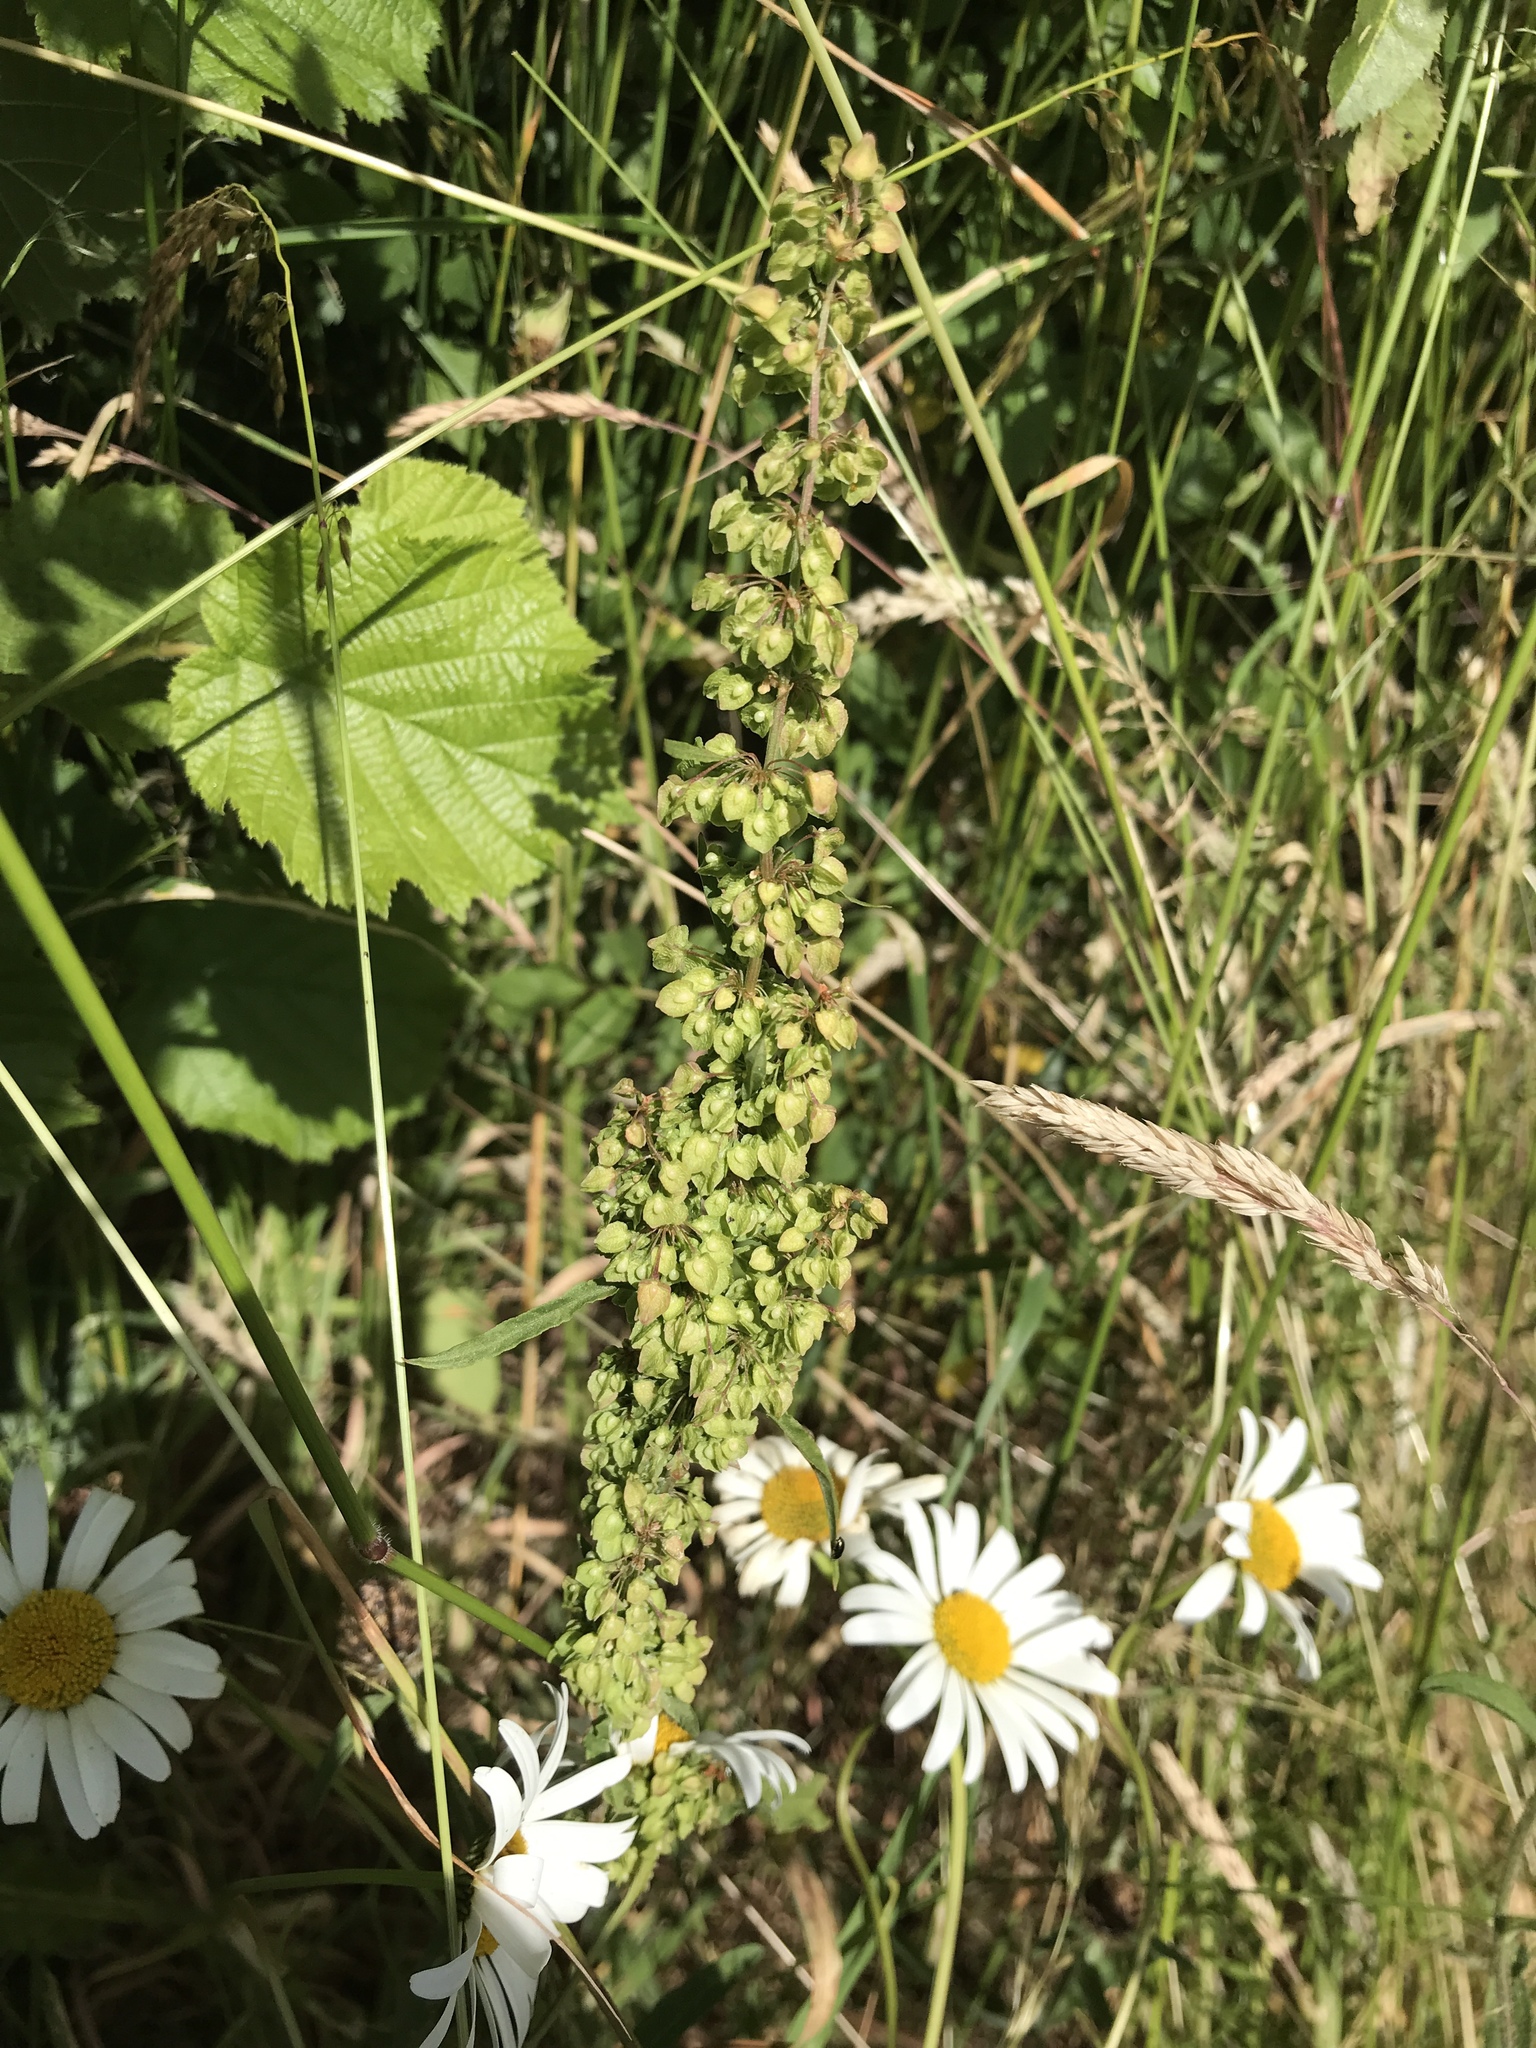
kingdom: Plantae
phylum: Tracheophyta
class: Magnoliopsida
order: Caryophyllales
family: Polygonaceae
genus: Rumex
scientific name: Rumex crispus
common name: Curled dock
